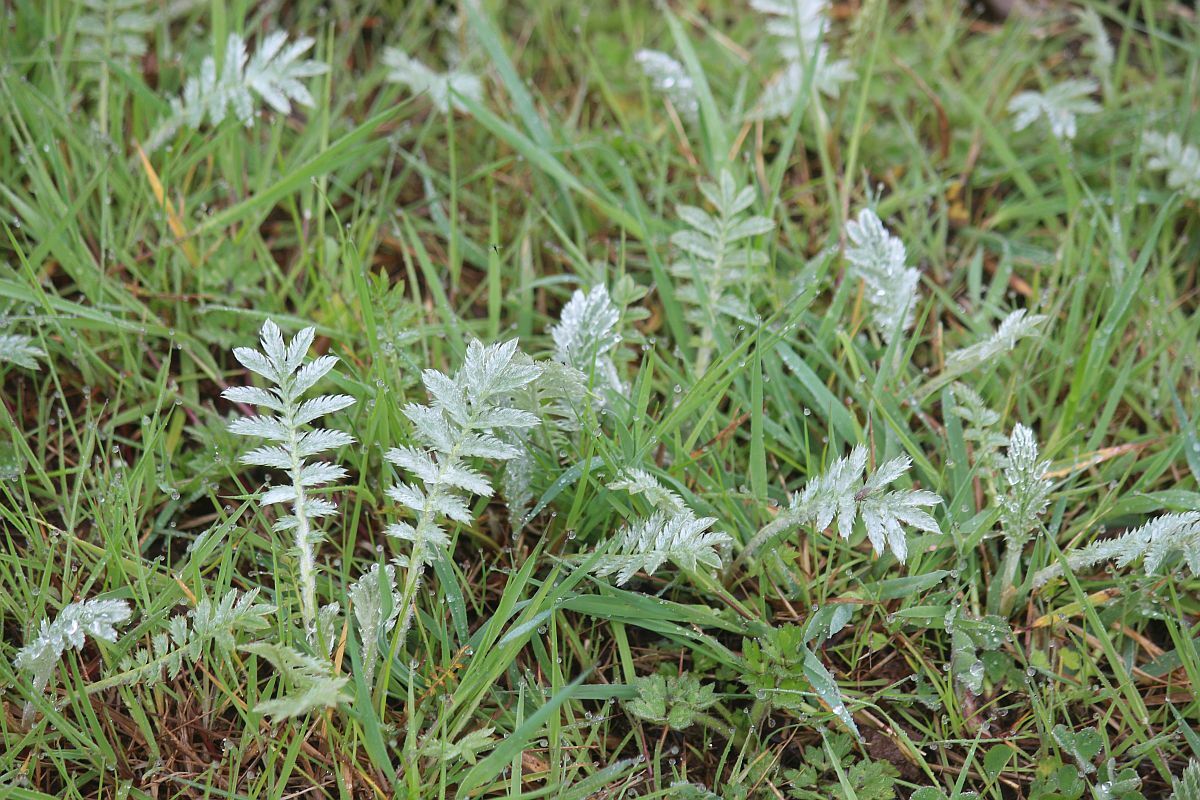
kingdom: Plantae
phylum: Tracheophyta
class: Magnoliopsida
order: Rosales
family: Rosaceae
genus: Argentina
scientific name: Argentina anserina
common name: Common silverweed
